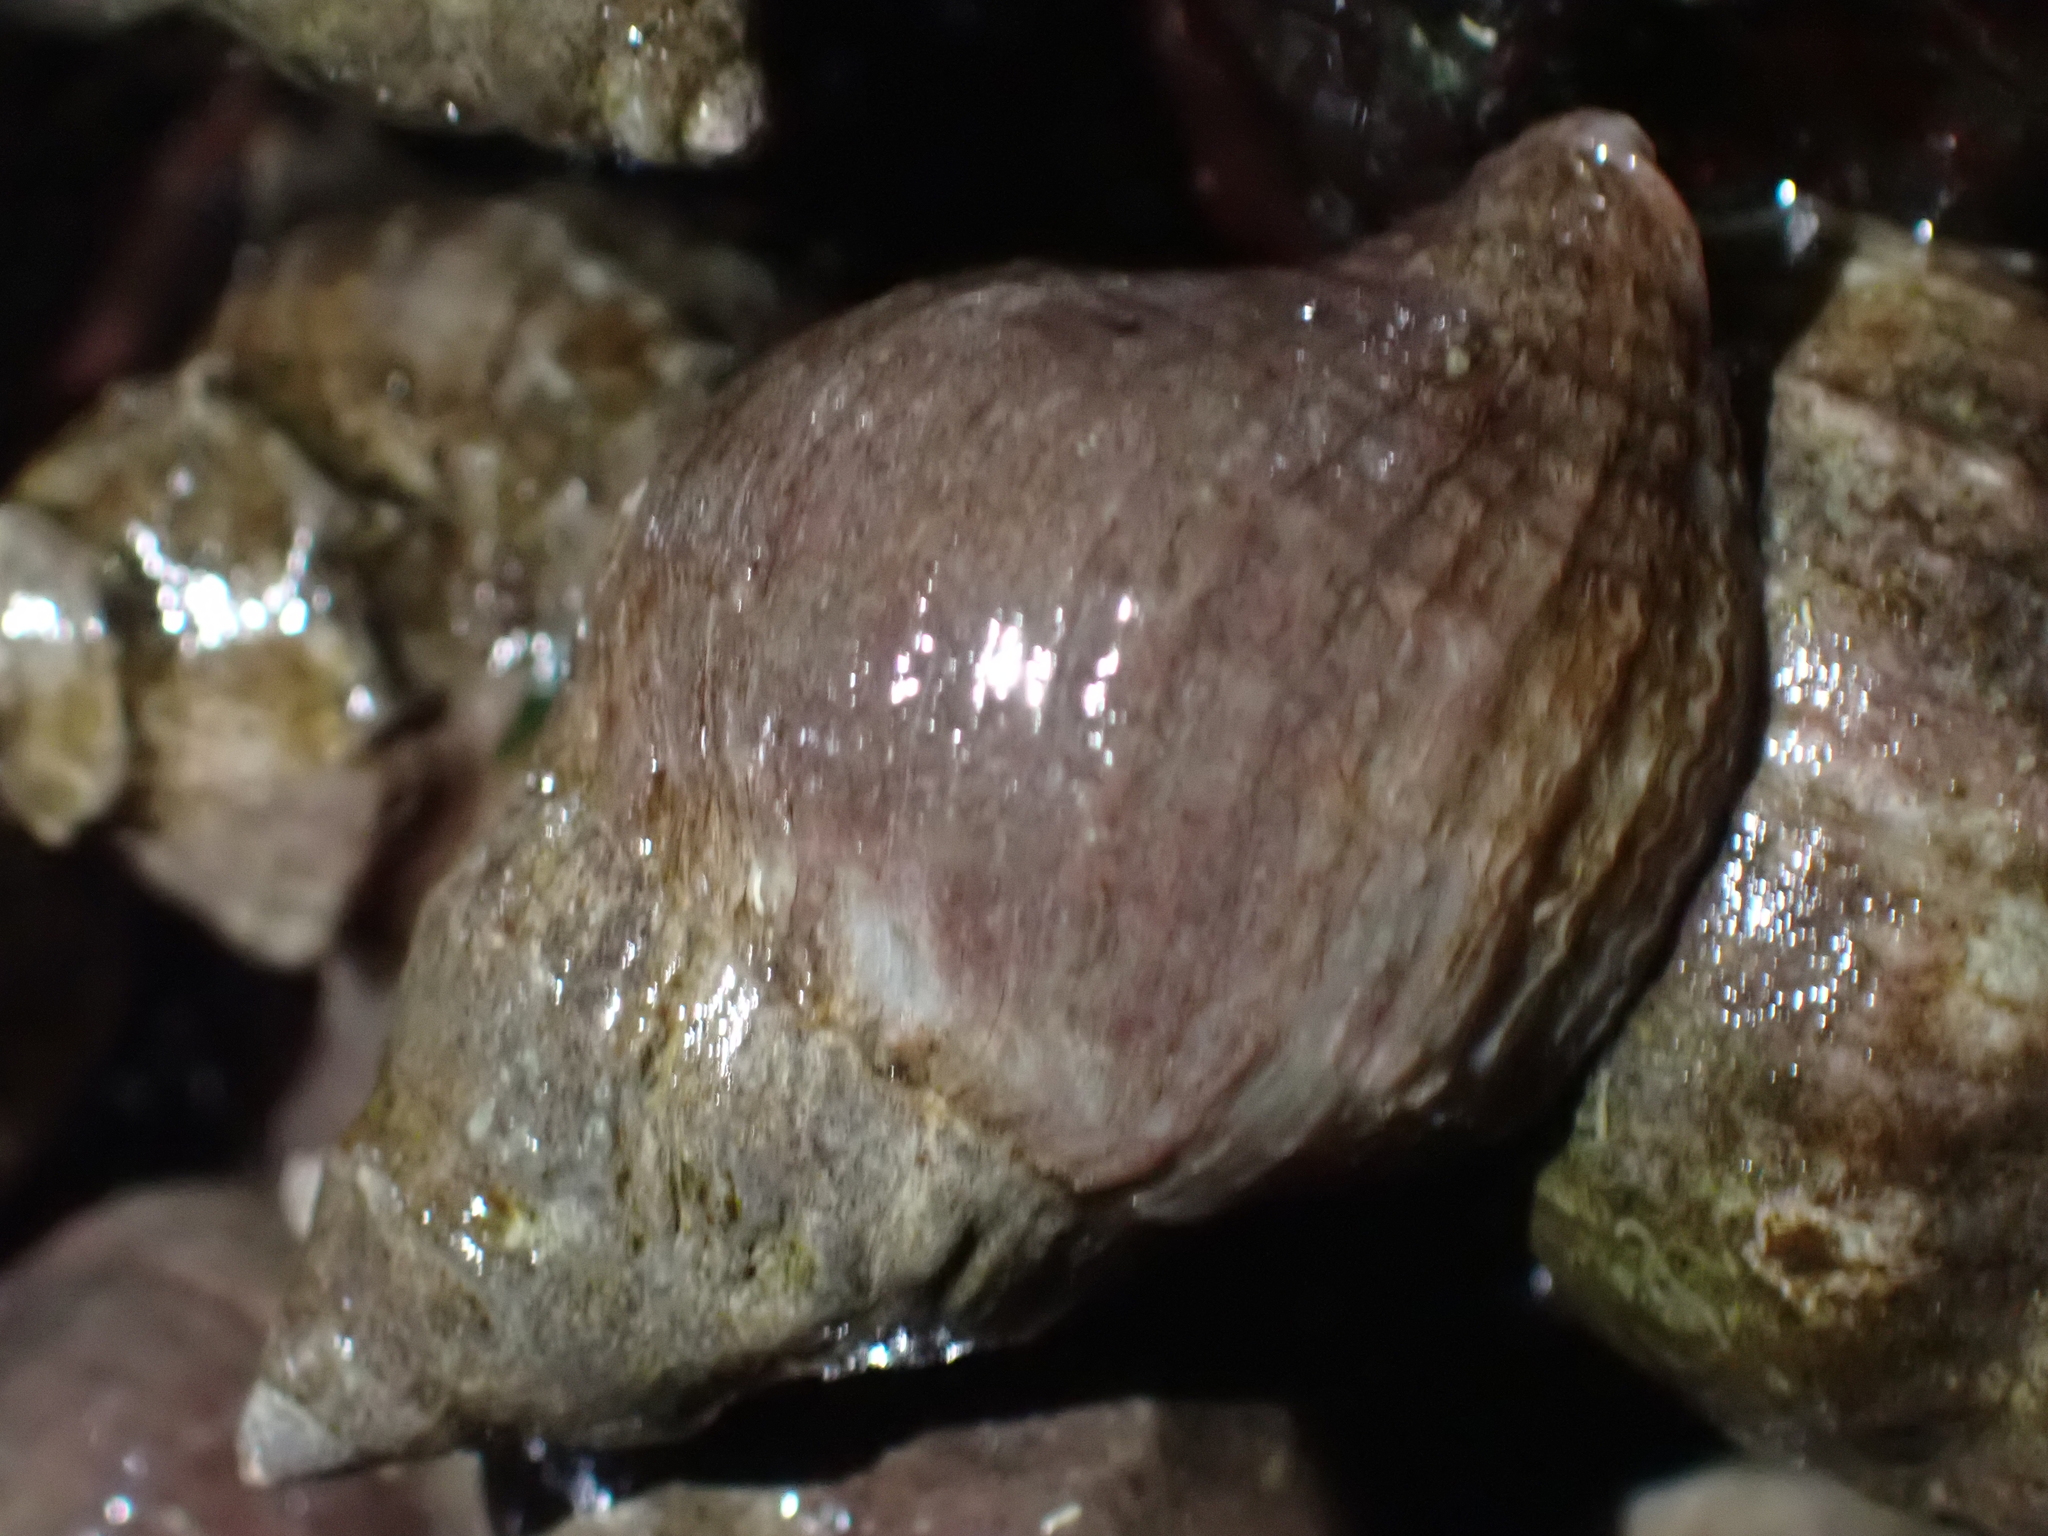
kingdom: Animalia
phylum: Mollusca
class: Gastropoda
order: Neogastropoda
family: Muricidae
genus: Nucella
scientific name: Nucella lamellosa
